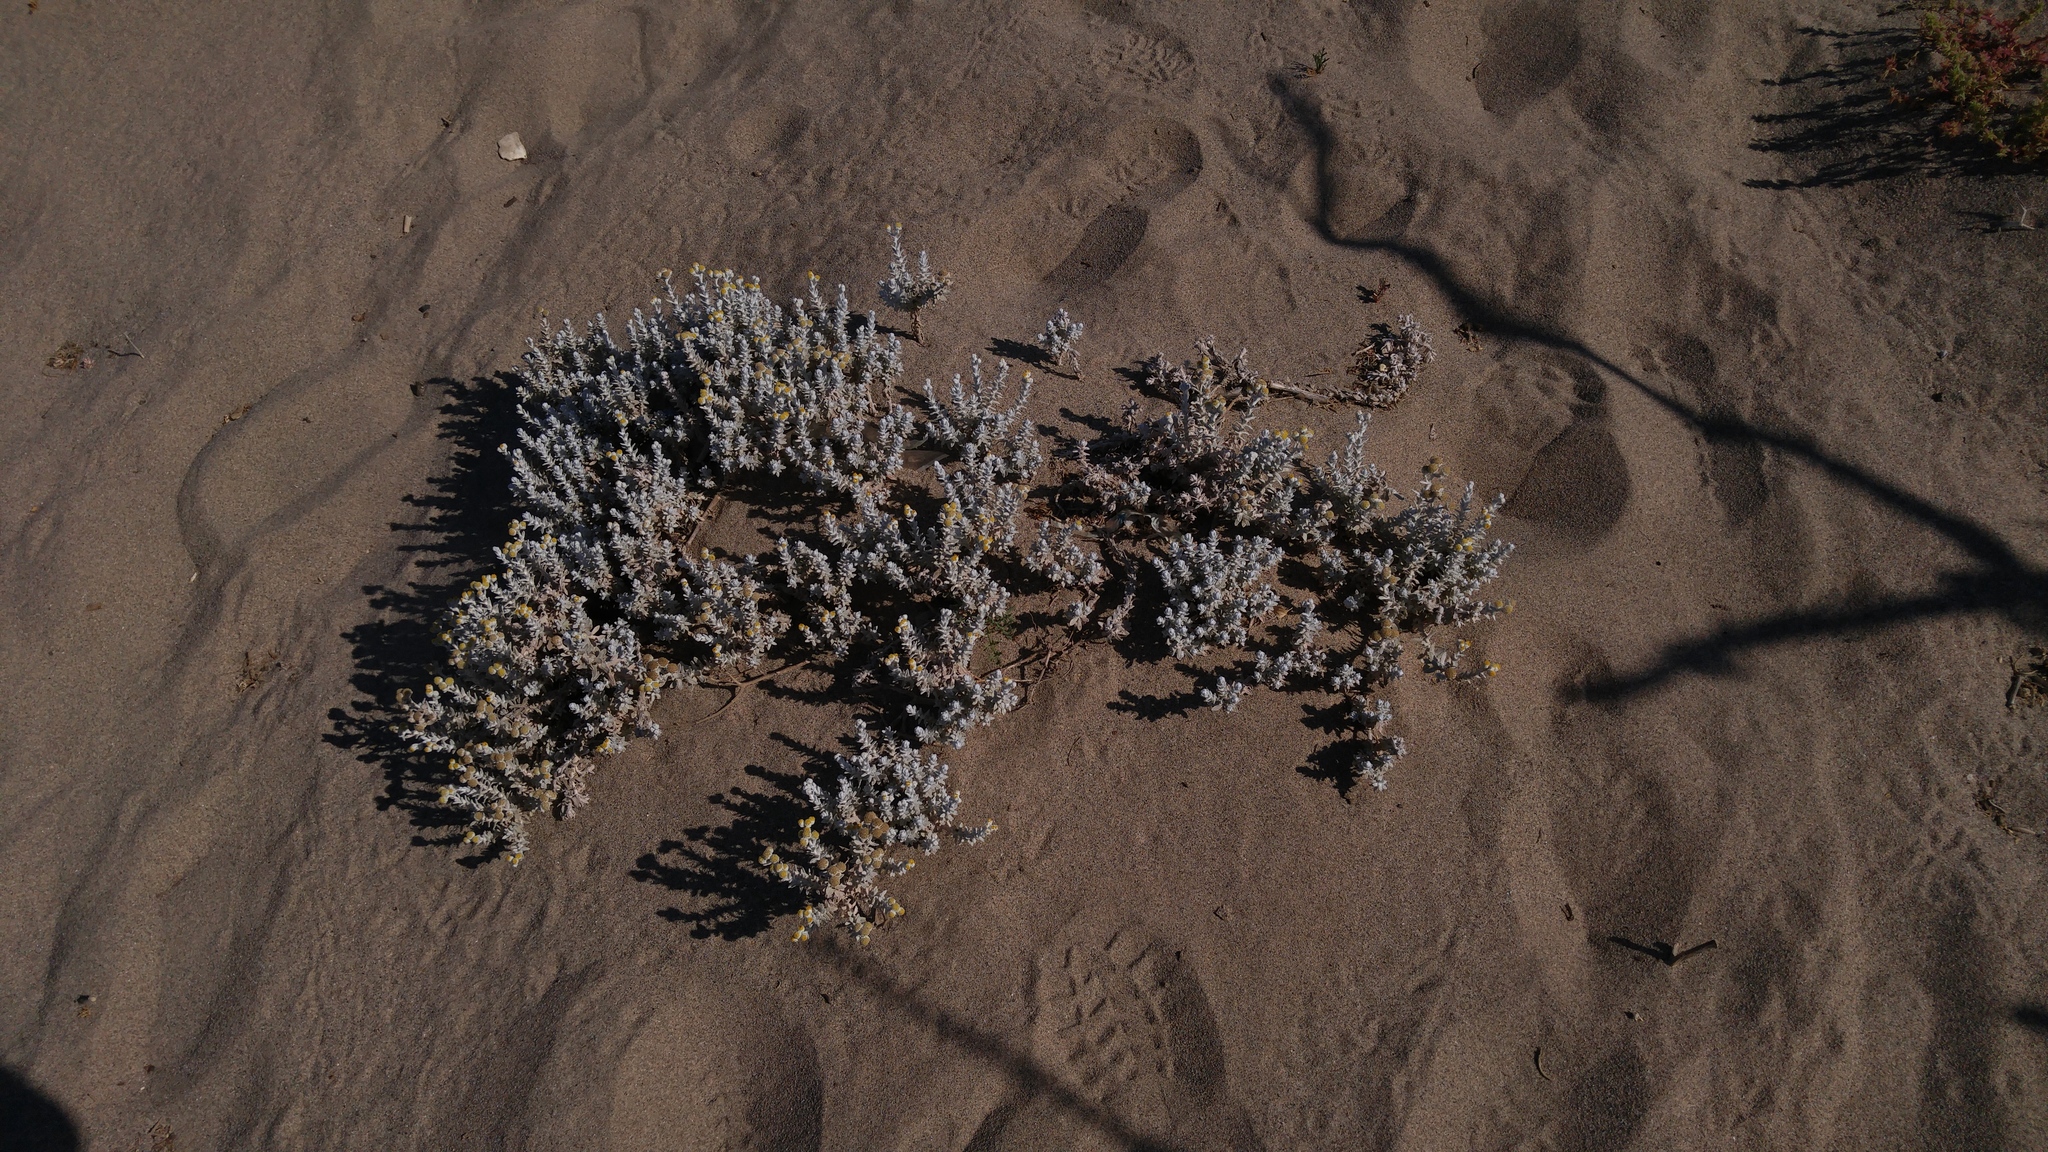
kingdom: Plantae
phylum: Tracheophyta
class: Magnoliopsida
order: Asterales
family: Asteraceae
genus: Achillea
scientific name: Achillea maritima
